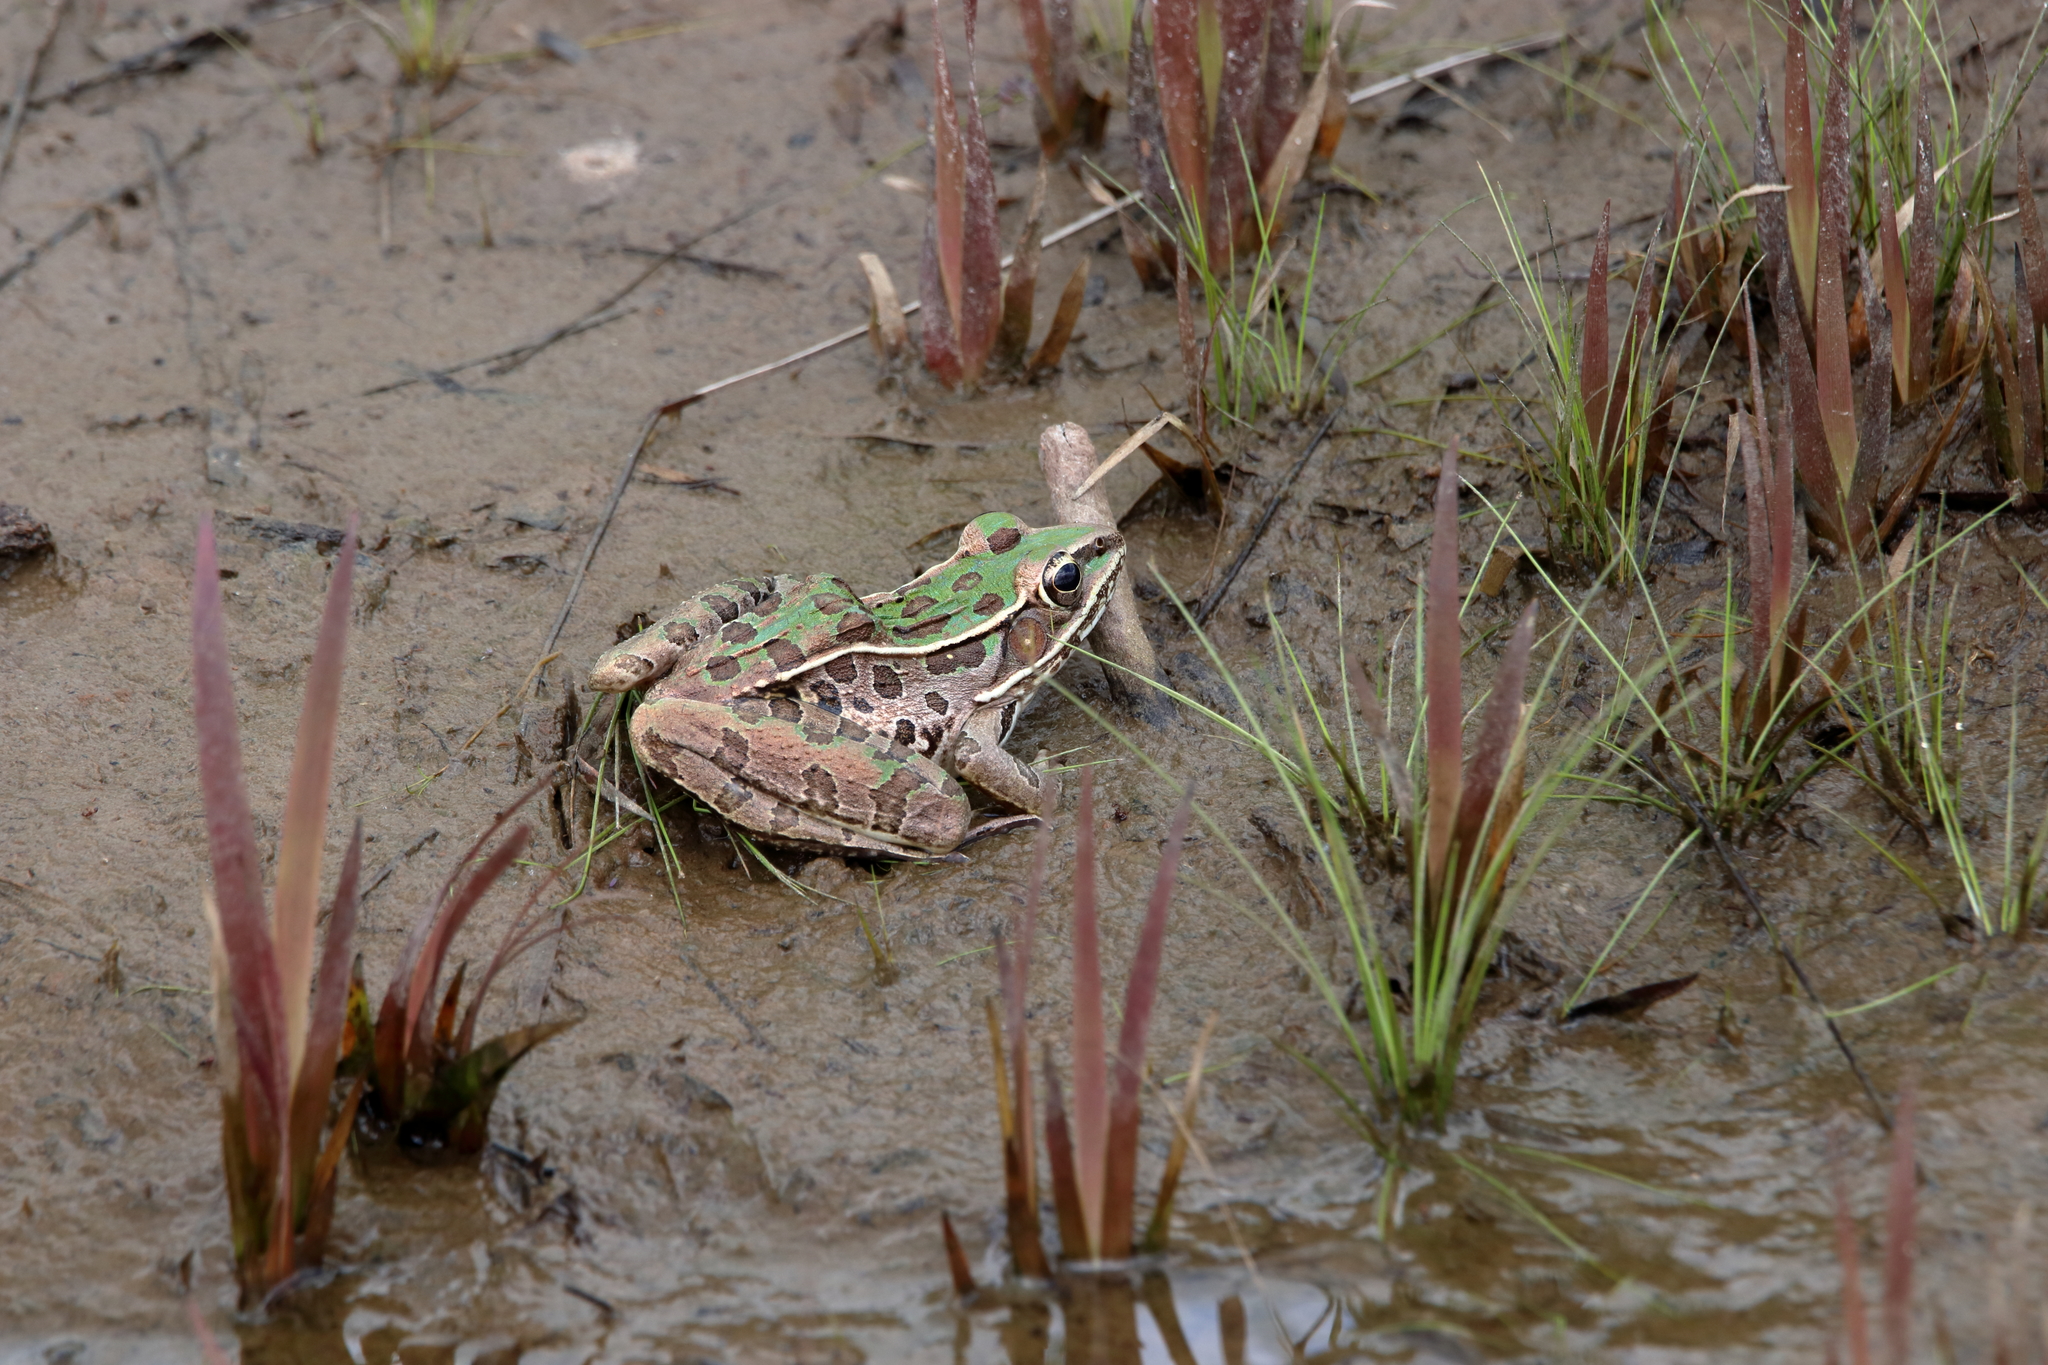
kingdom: Animalia
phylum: Chordata
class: Amphibia
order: Anura
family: Ranidae
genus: Lithobates
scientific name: Lithobates sphenocephalus
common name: Southern leopard frog
